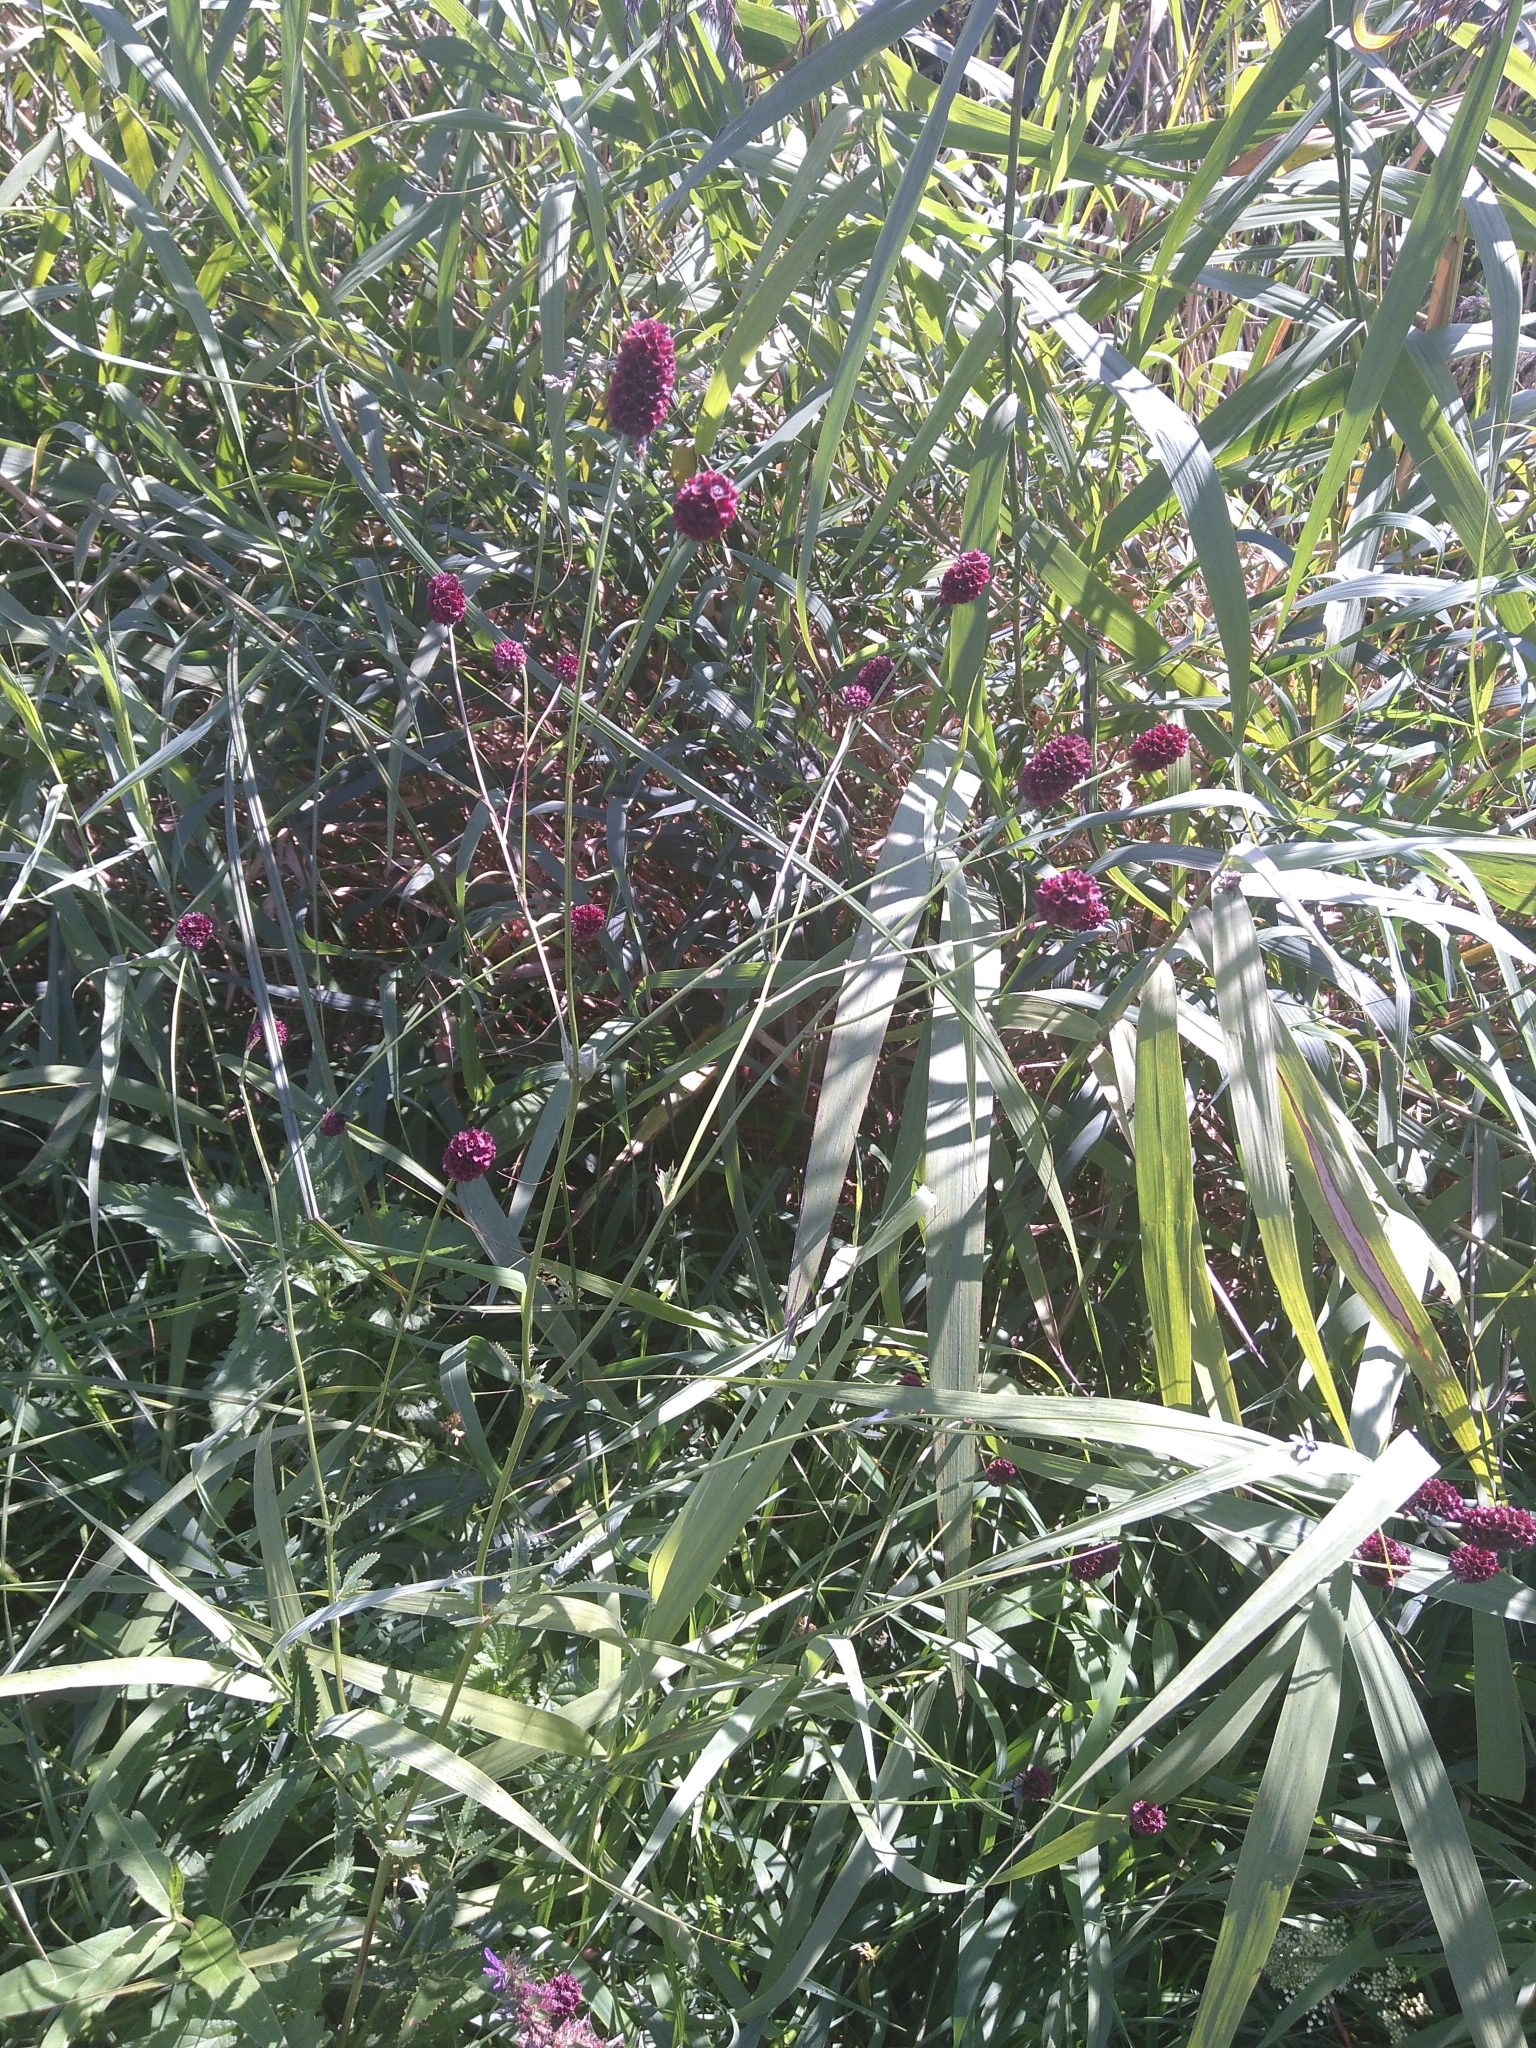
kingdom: Plantae
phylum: Tracheophyta
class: Magnoliopsida
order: Rosales
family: Rosaceae
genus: Sanguisorba
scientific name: Sanguisorba officinalis
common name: Great burnet
